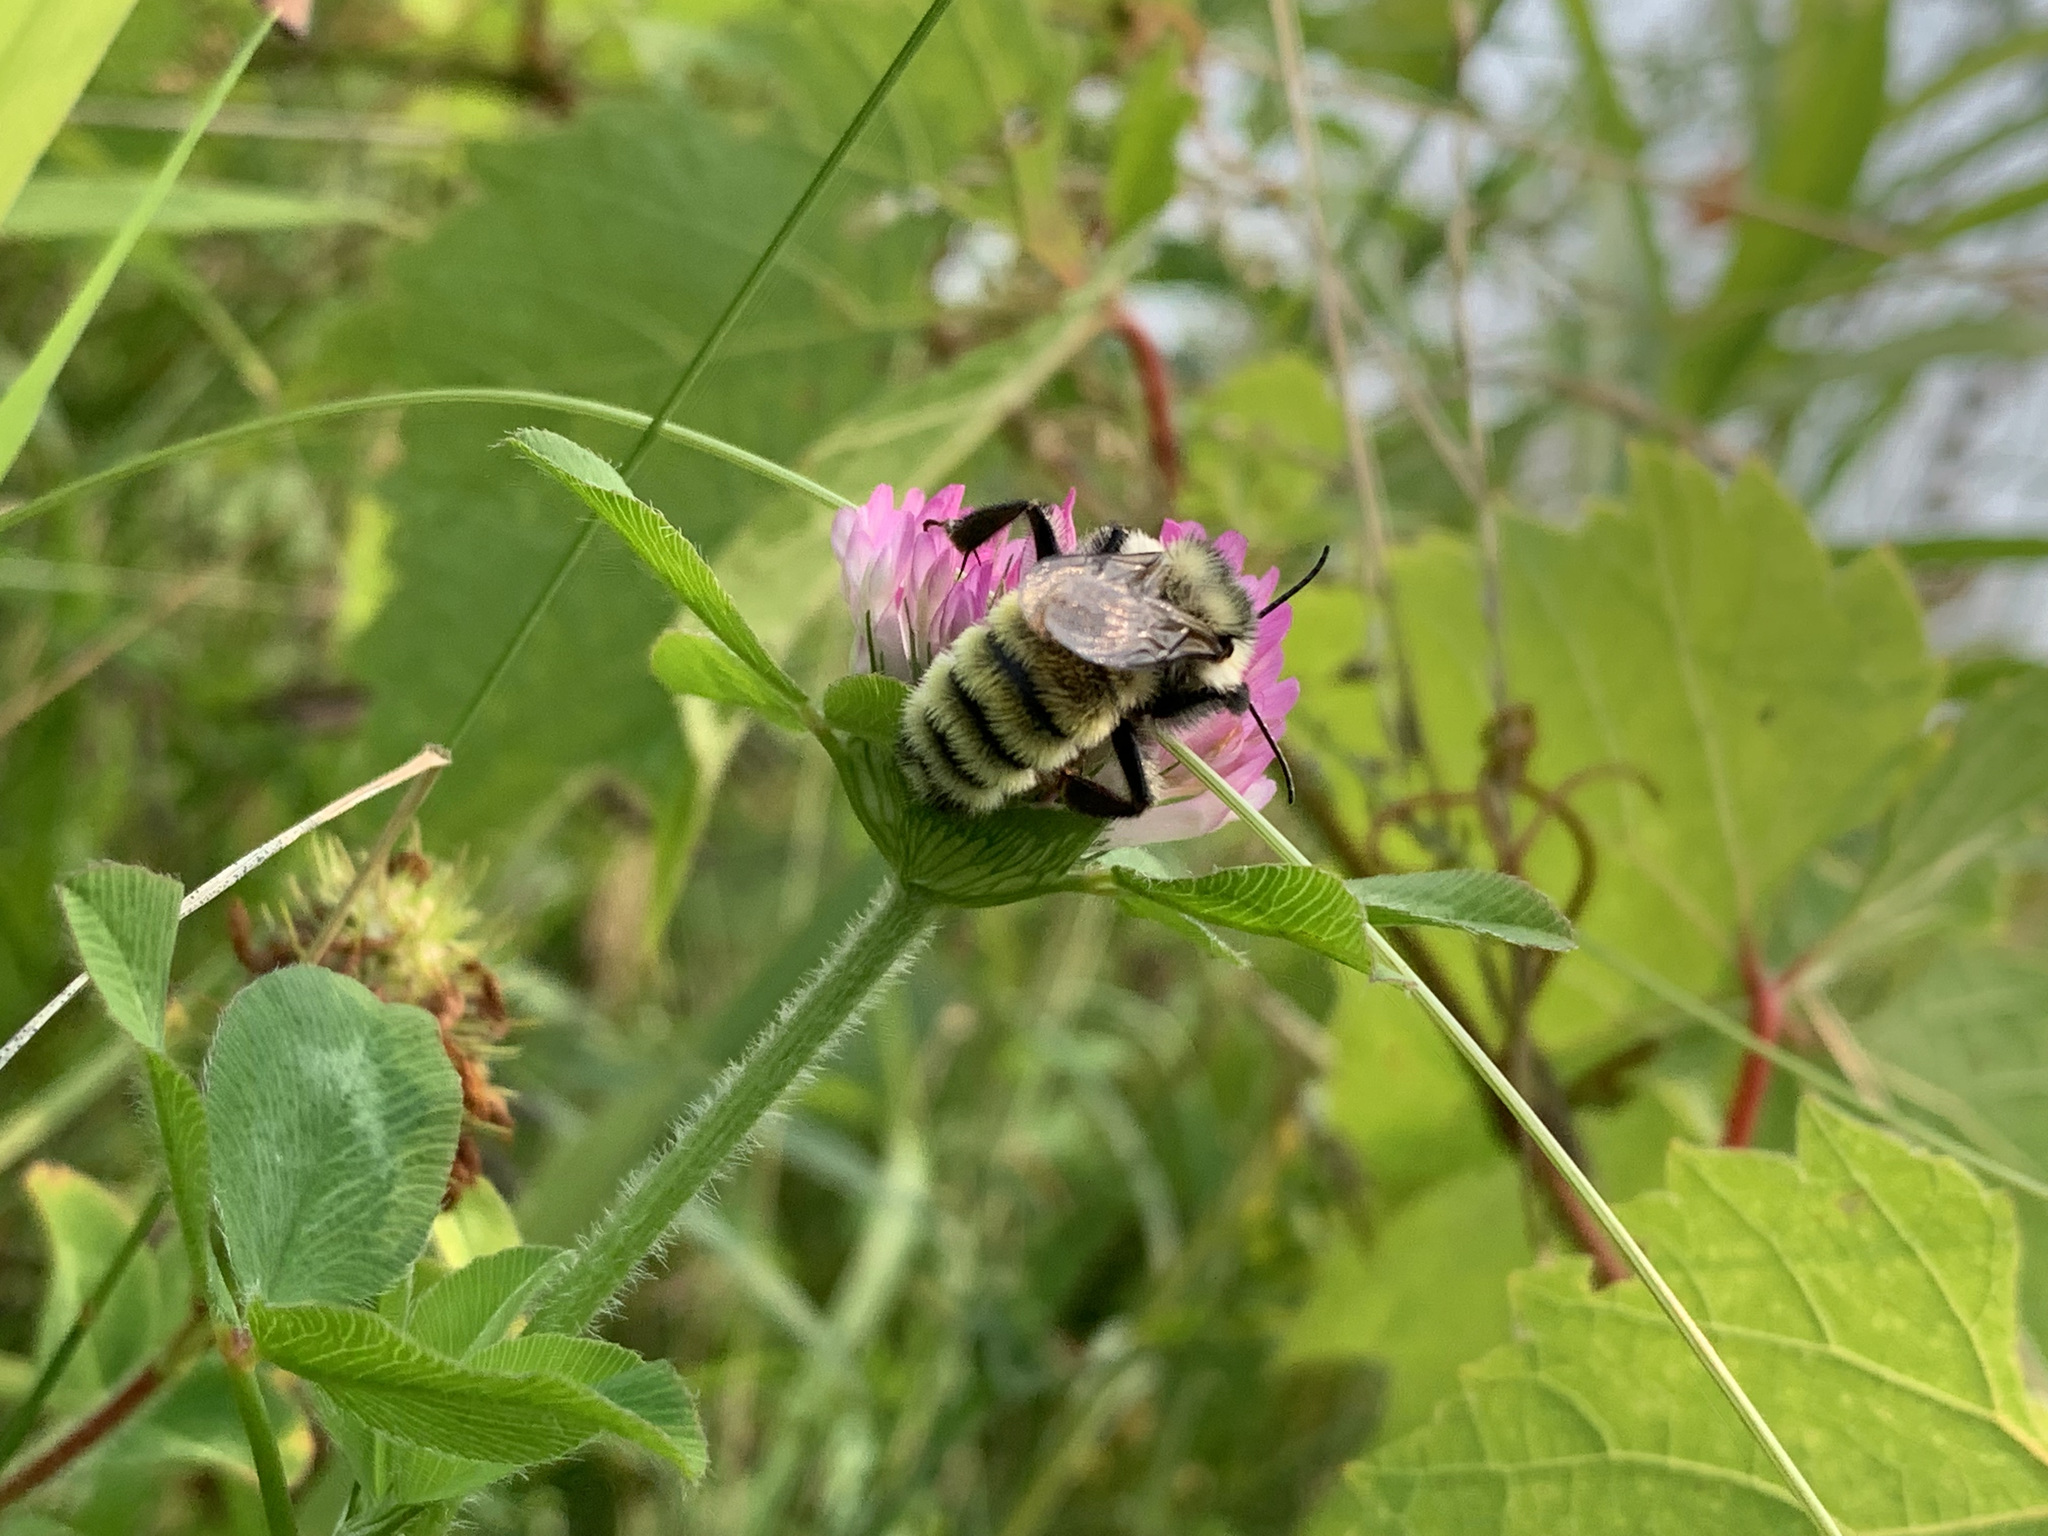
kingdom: Animalia
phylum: Arthropoda
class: Insecta
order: Hymenoptera
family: Apidae
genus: Bombus
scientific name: Bombus fervidus
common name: Yellow bumble bee
